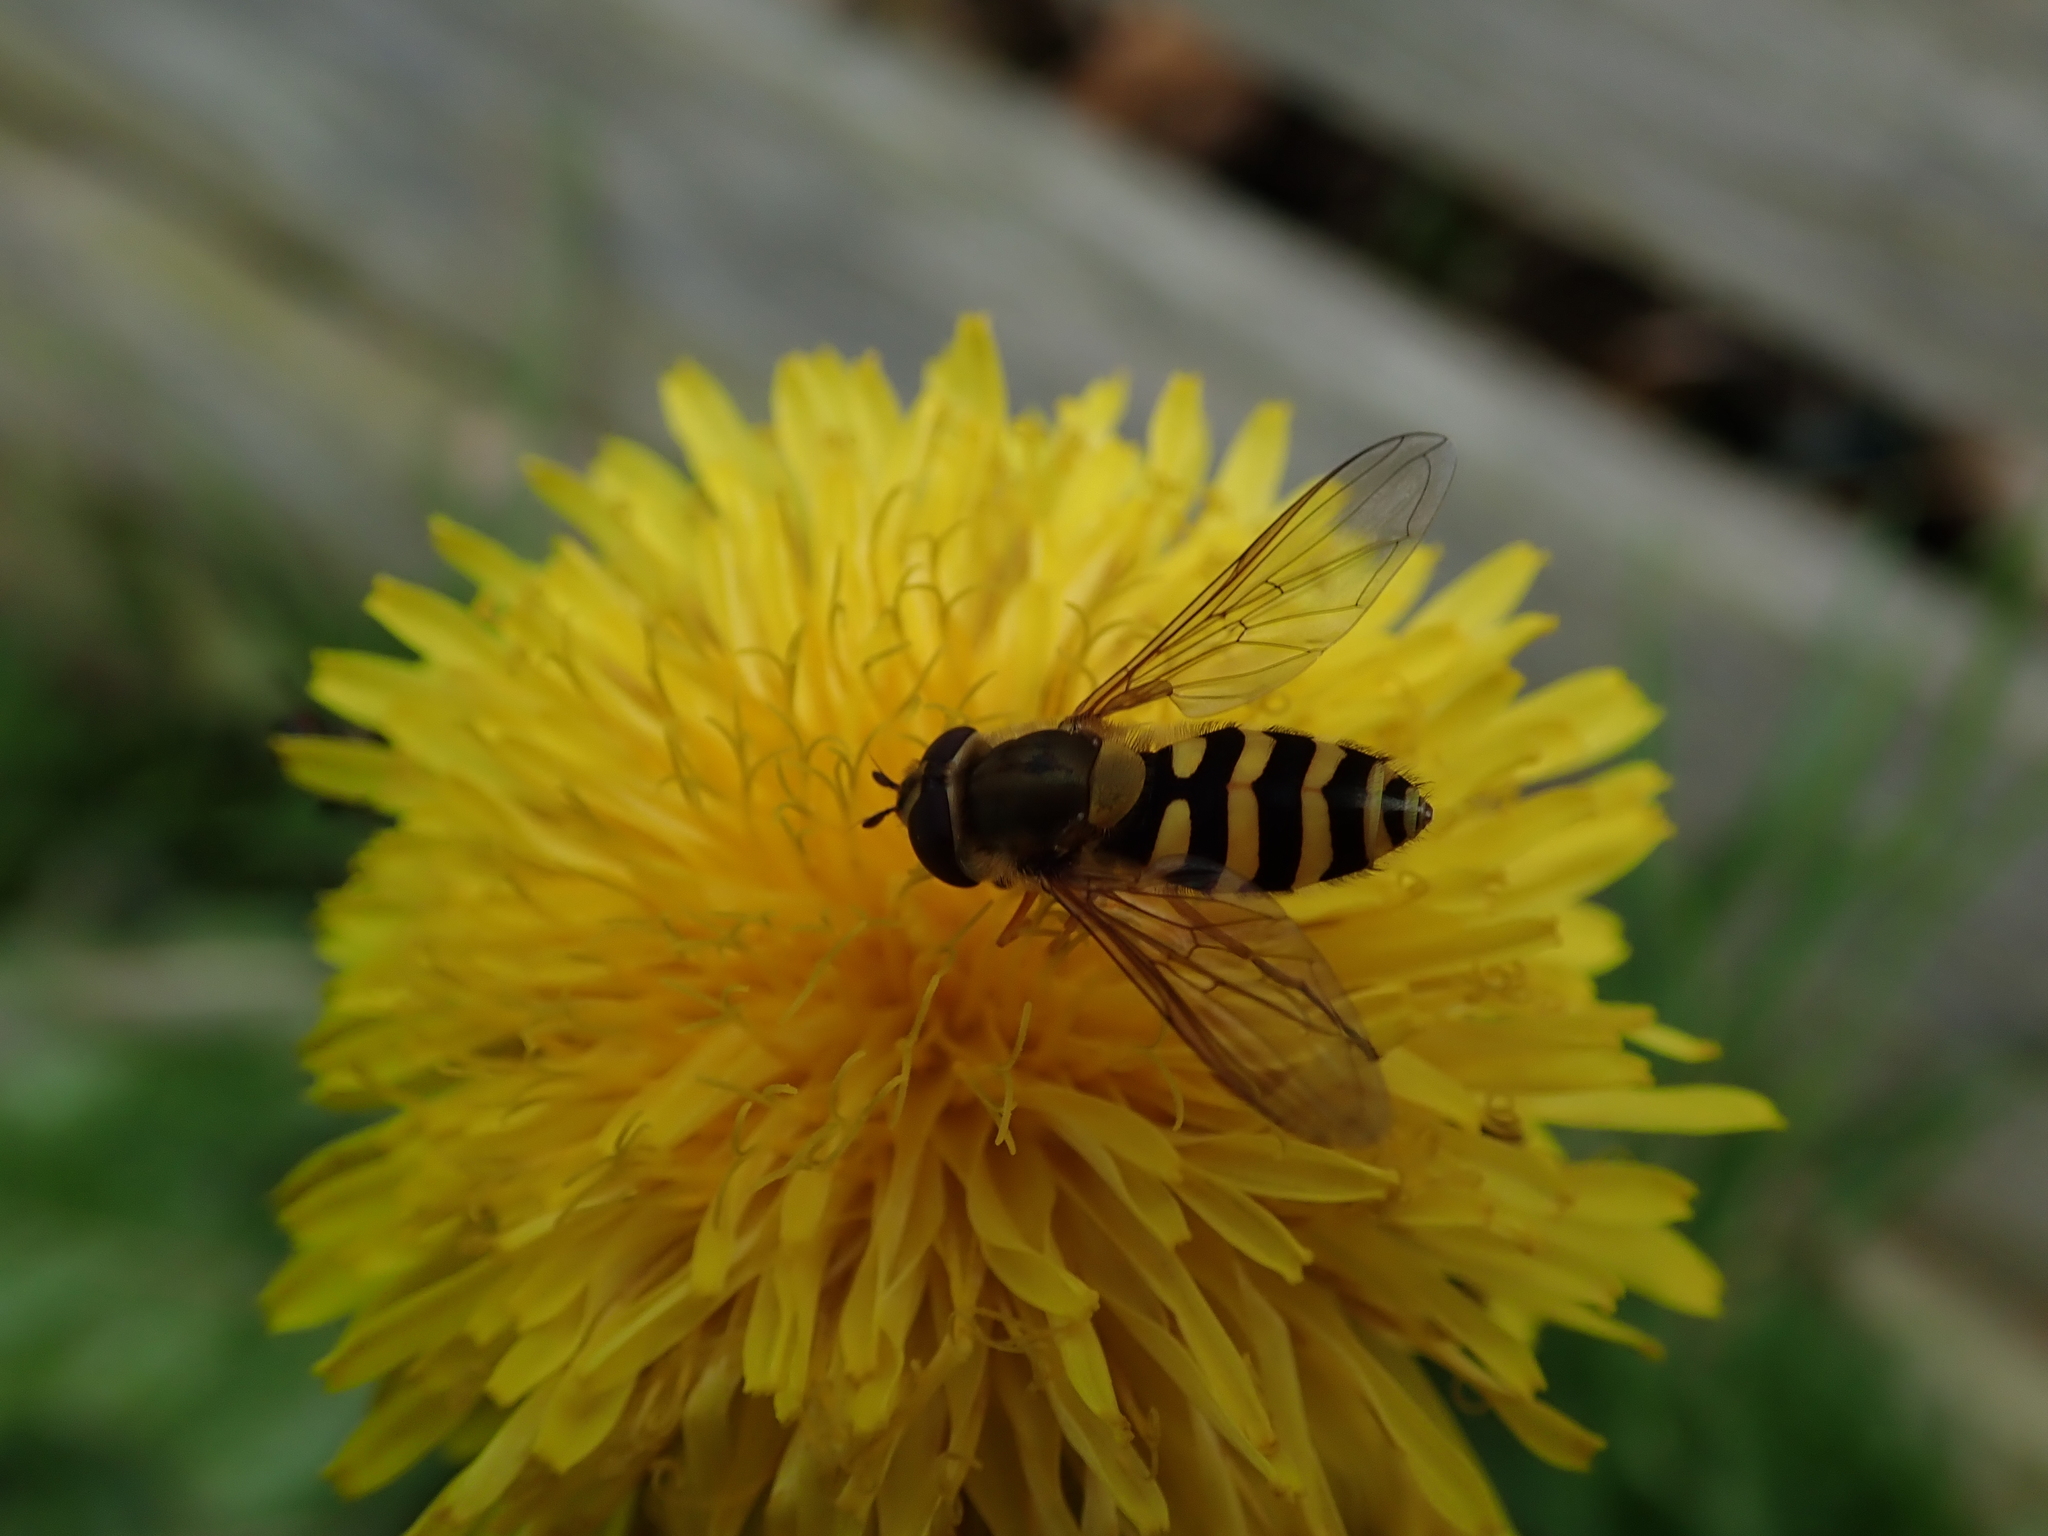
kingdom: Animalia
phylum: Arthropoda
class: Insecta
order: Diptera
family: Syrphidae
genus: Syrphus
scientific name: Syrphus ribesii
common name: Common flower fly
